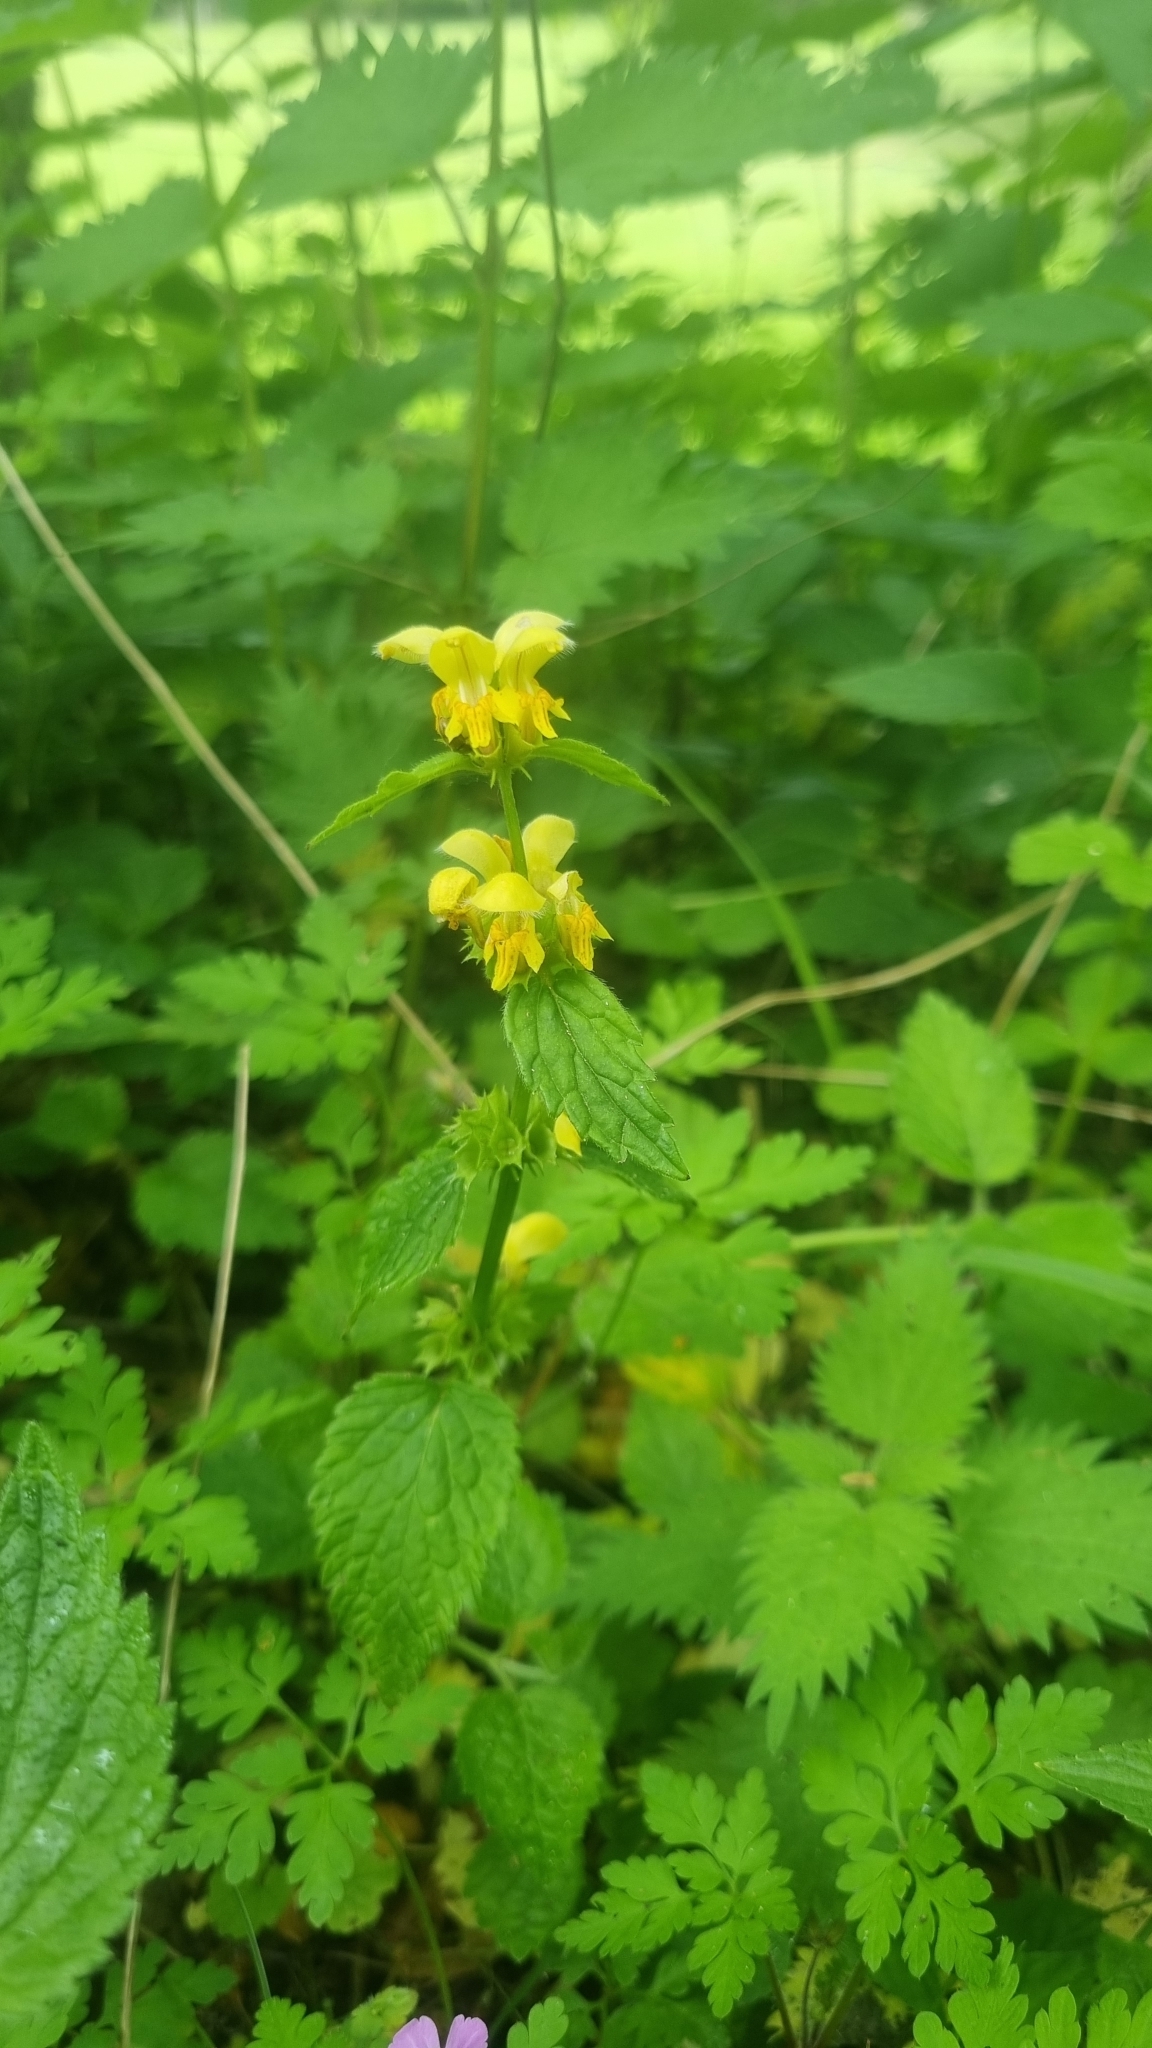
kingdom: Plantae
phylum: Tracheophyta
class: Magnoliopsida
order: Lamiales
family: Lamiaceae
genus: Lamium
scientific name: Lamium galeobdolon
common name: Yellow archangel
